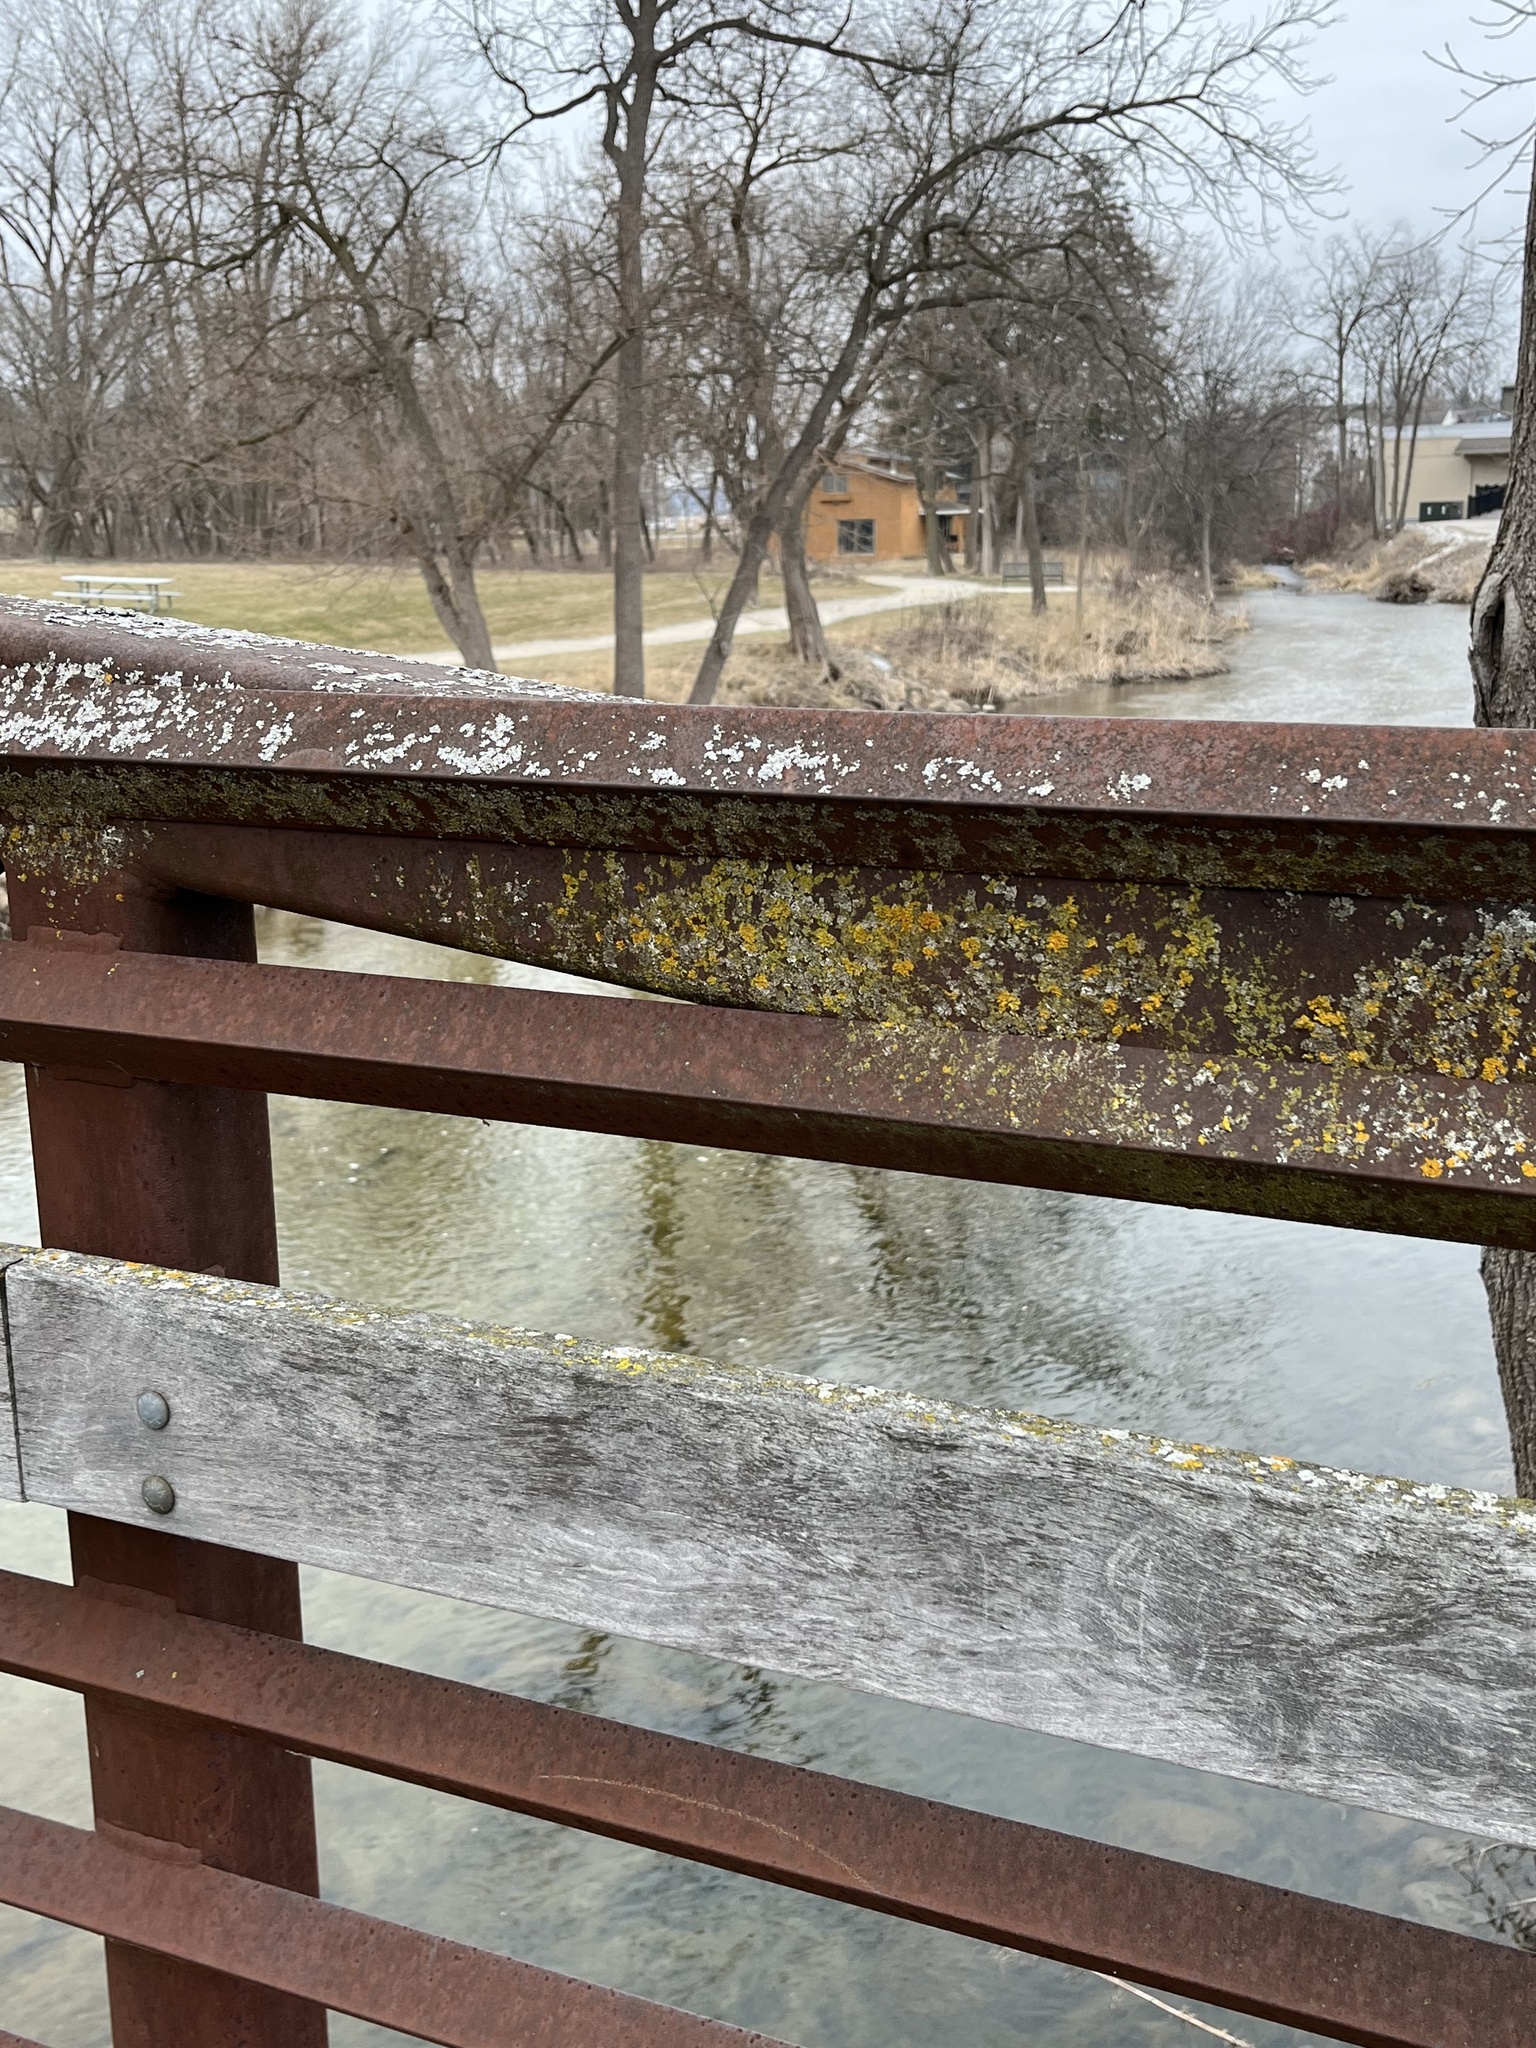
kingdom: Fungi
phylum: Ascomycota
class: Lecanoromycetes
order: Teloschistales
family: Teloschistaceae
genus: Oxneria
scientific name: Oxneria fallax
